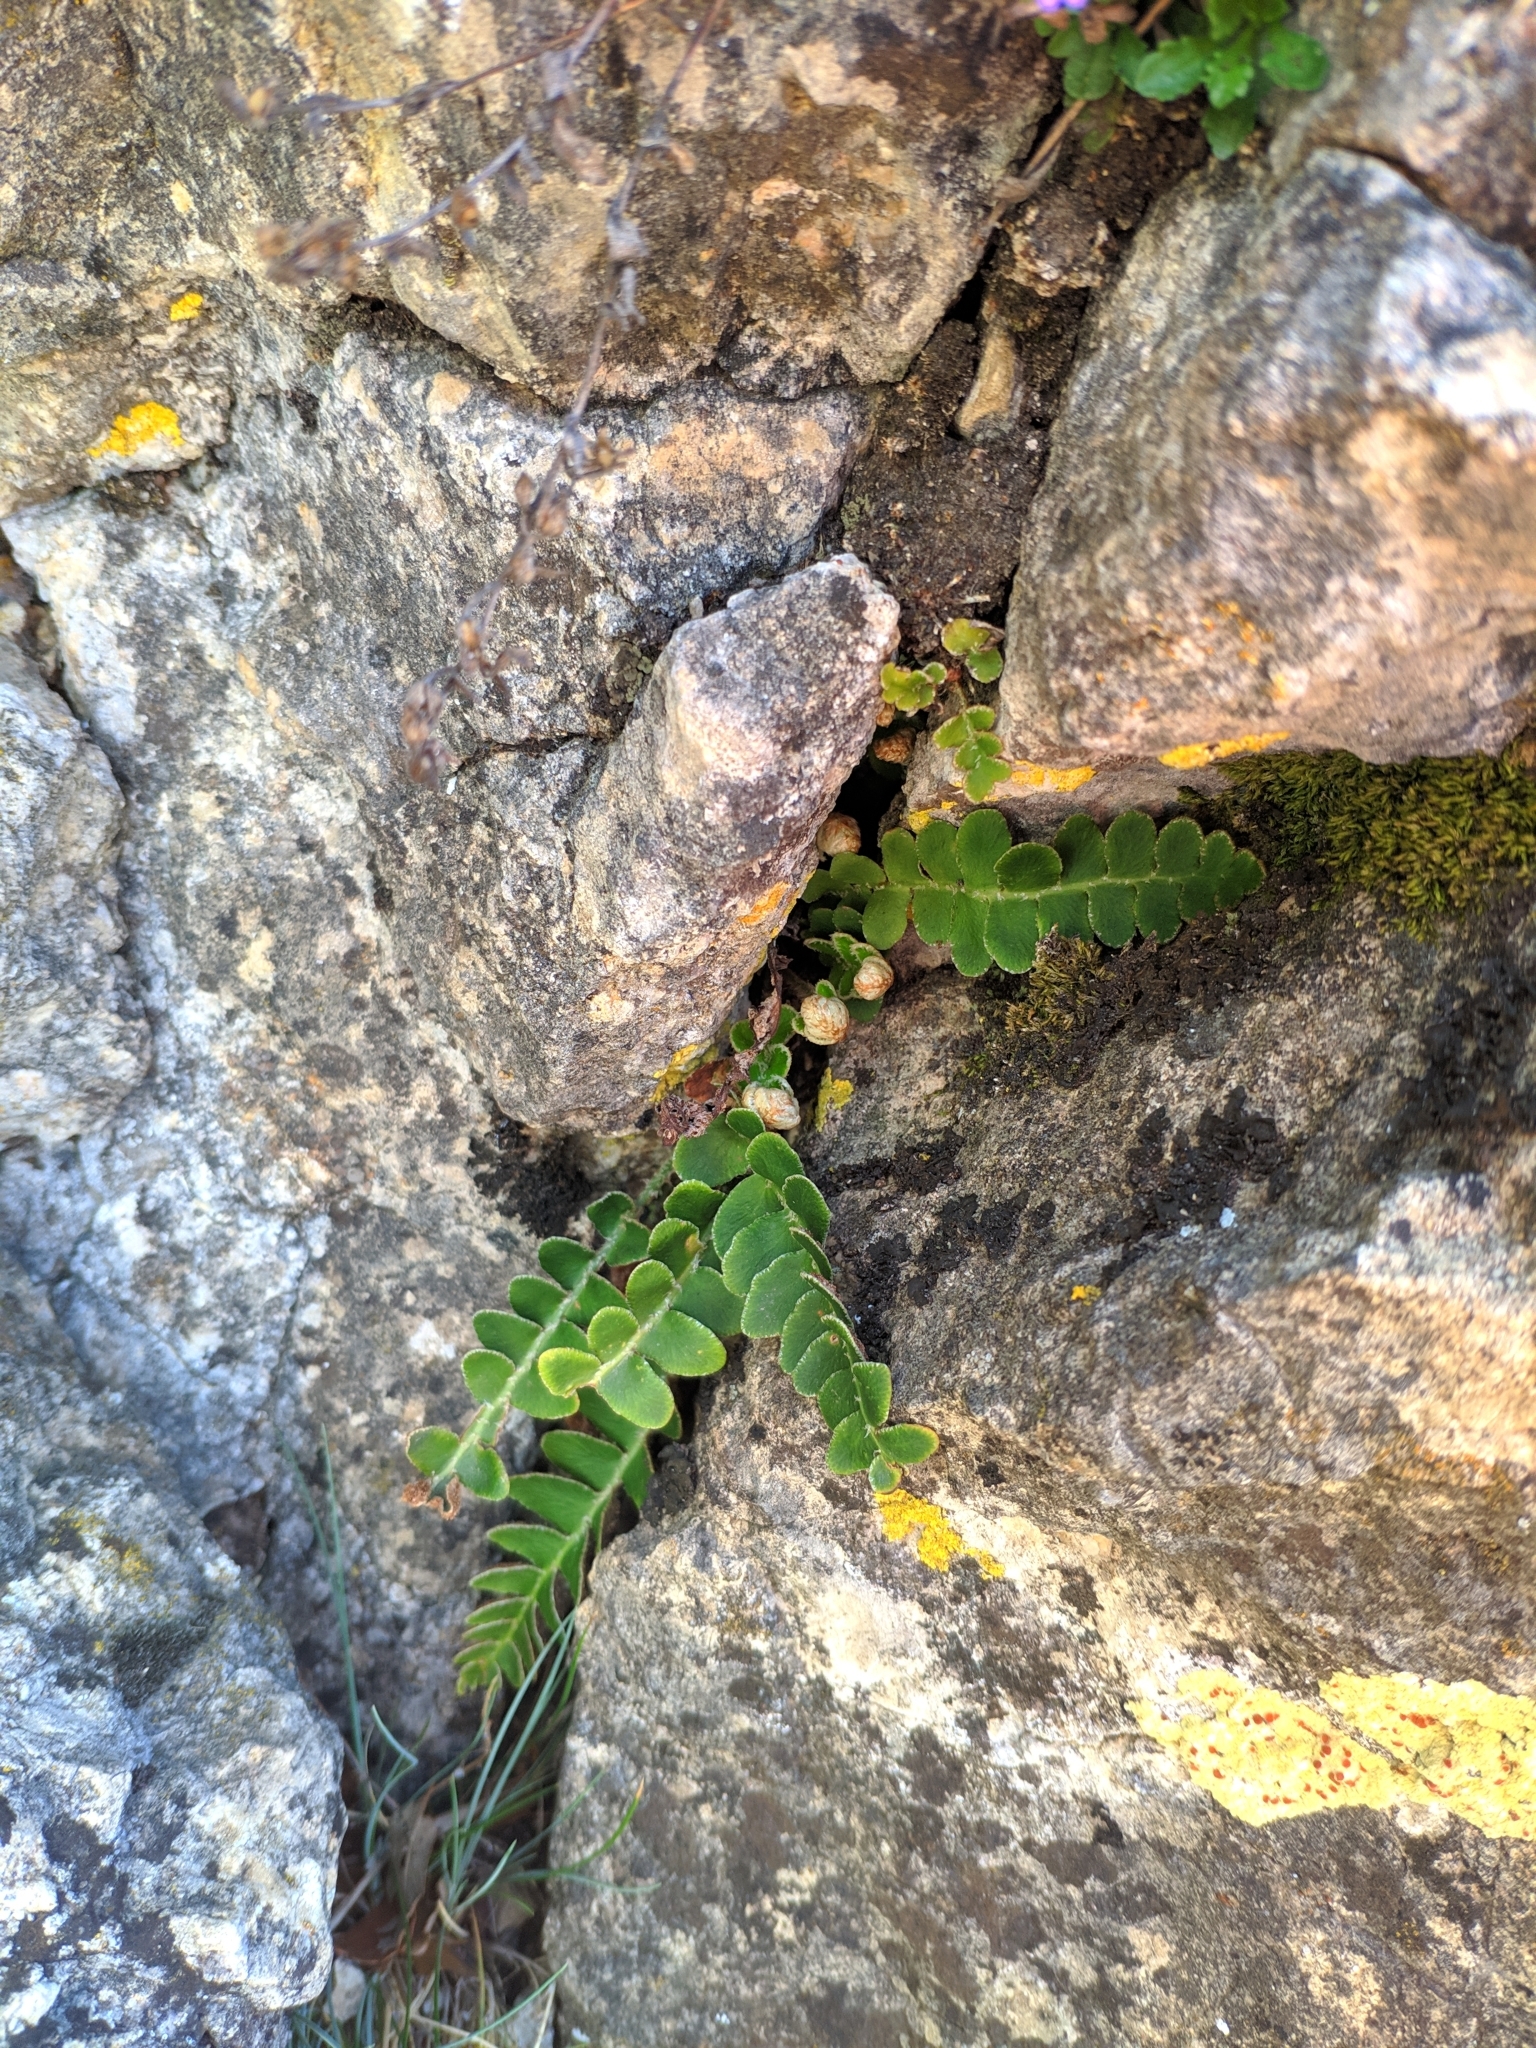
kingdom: Plantae
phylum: Tracheophyta
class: Polypodiopsida
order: Polypodiales
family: Aspleniaceae
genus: Asplenium
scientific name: Asplenium ceterach
